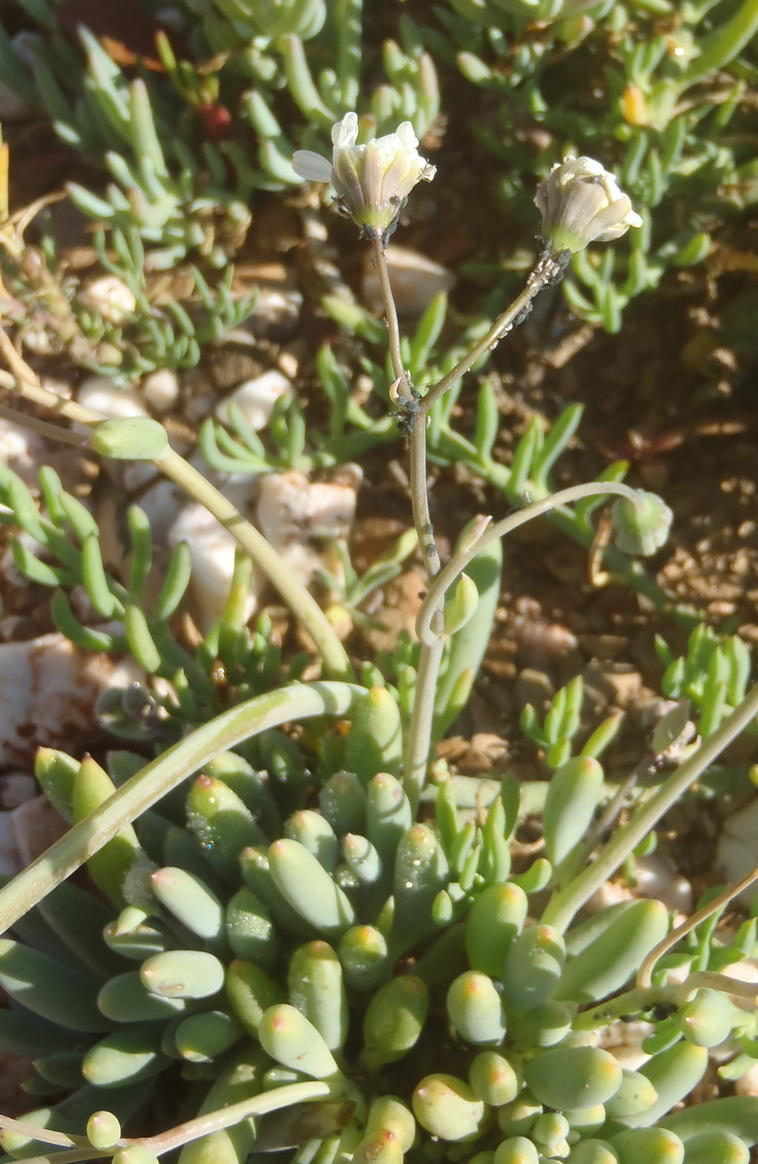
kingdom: Plantae
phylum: Tracheophyta
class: Magnoliopsida
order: Asterales
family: Asteraceae
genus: Crassothonna
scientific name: Crassothonna alba
